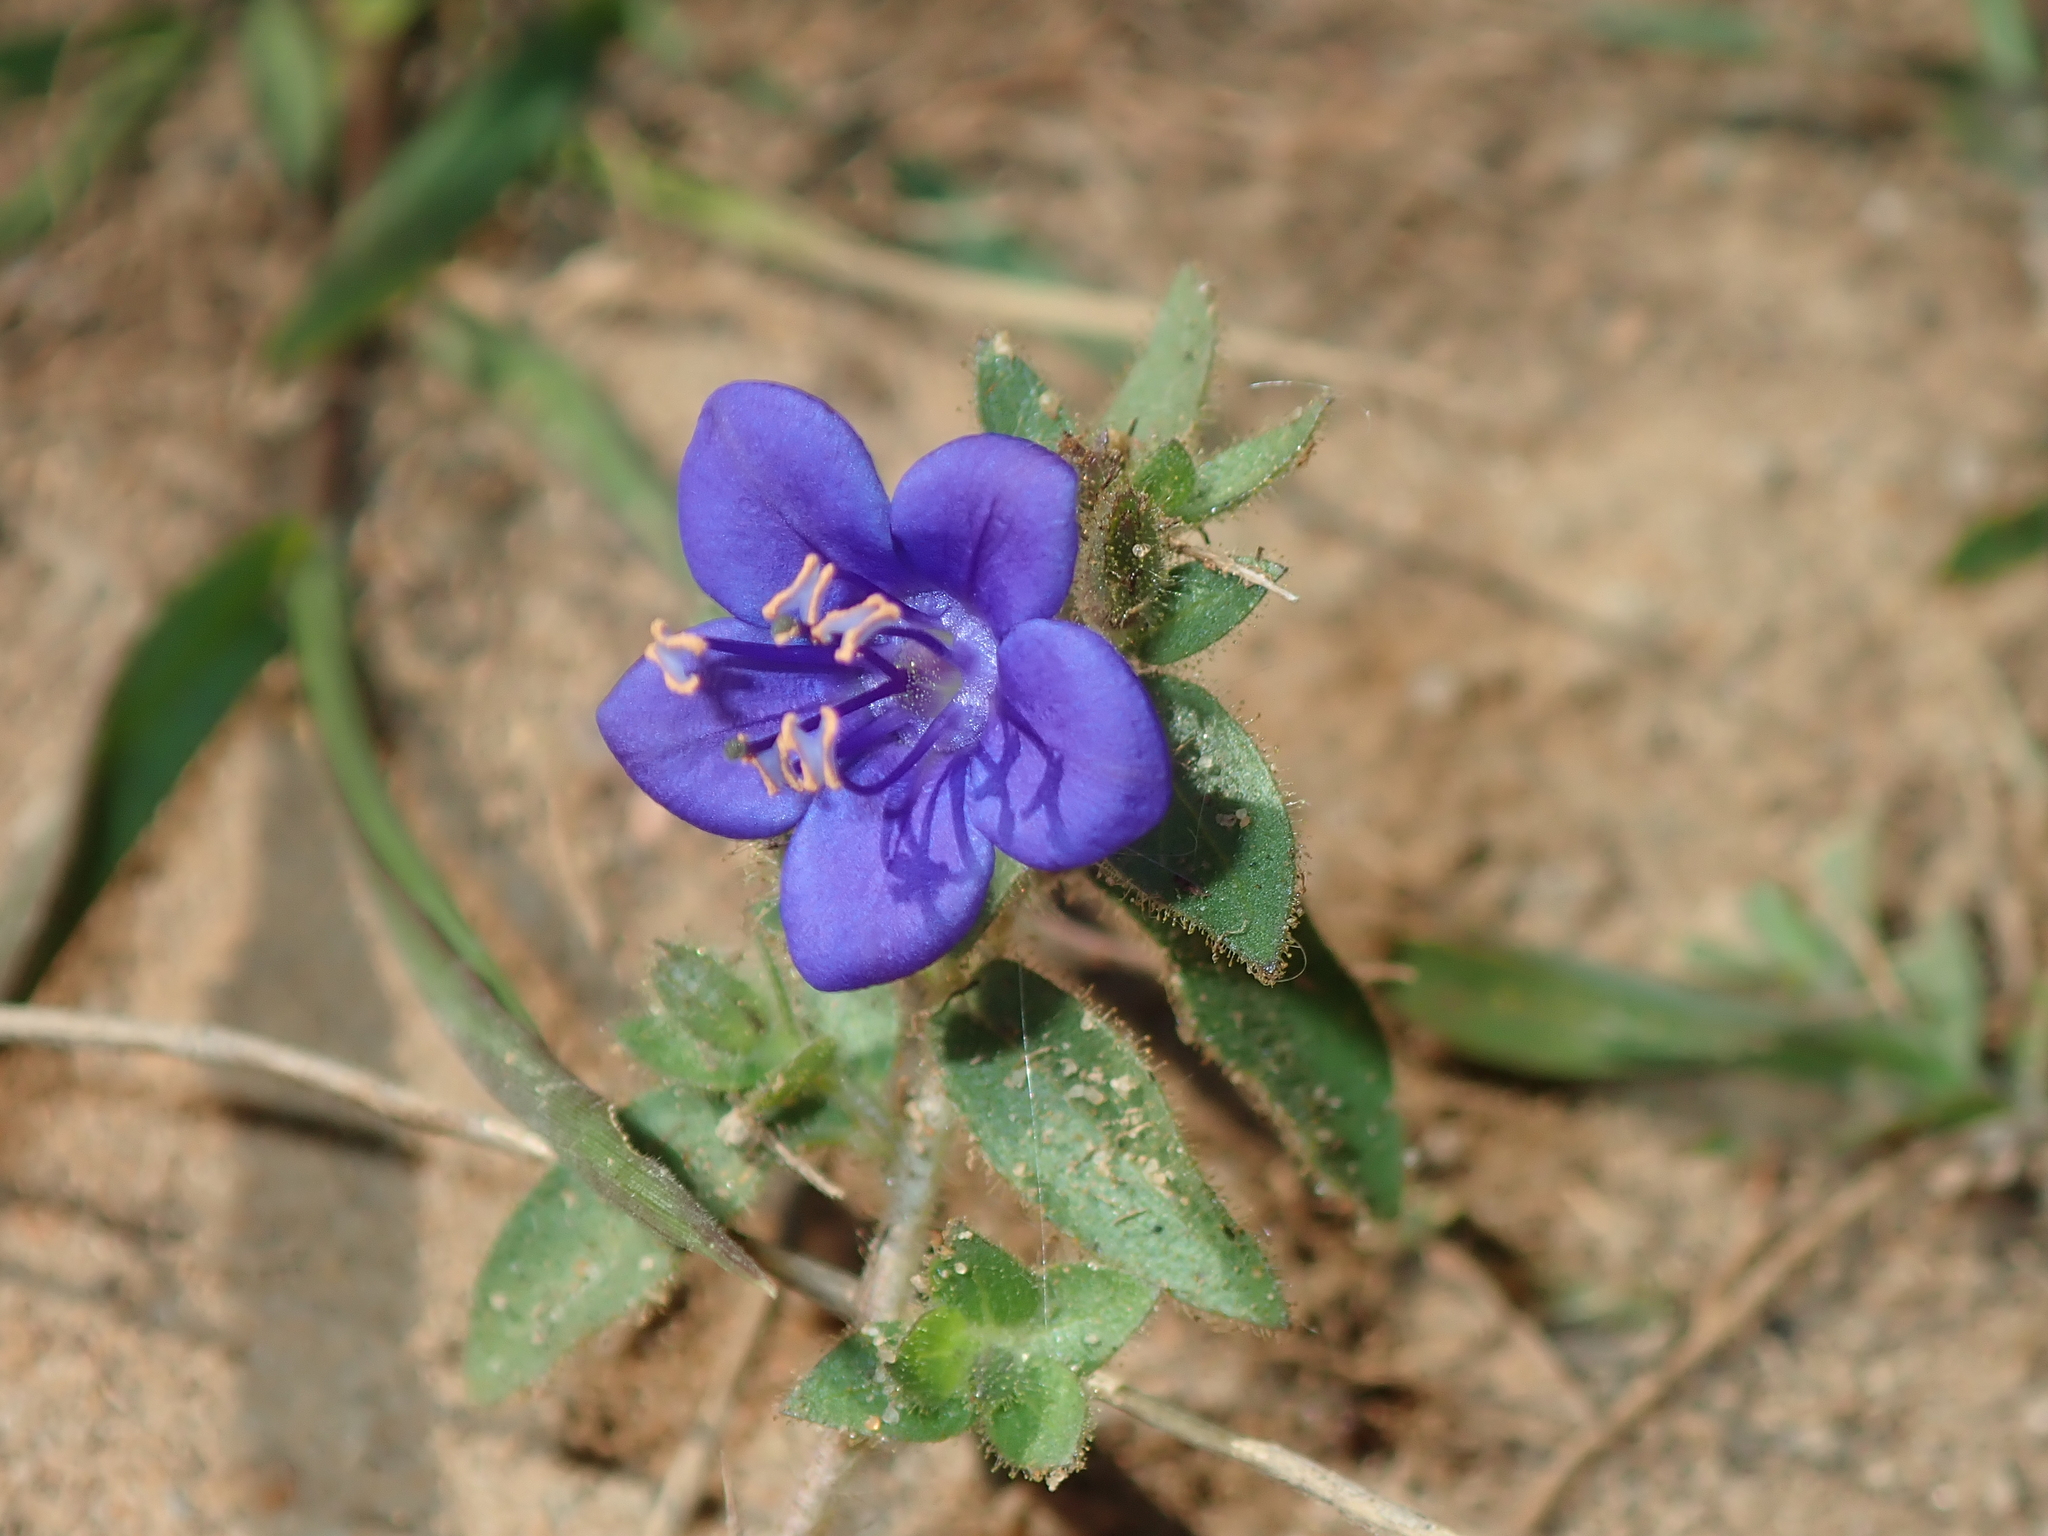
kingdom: Plantae
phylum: Tracheophyta
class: Magnoliopsida
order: Solanales
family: Hydroleaceae
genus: Hydrolea
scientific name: Hydrolea spinosa
